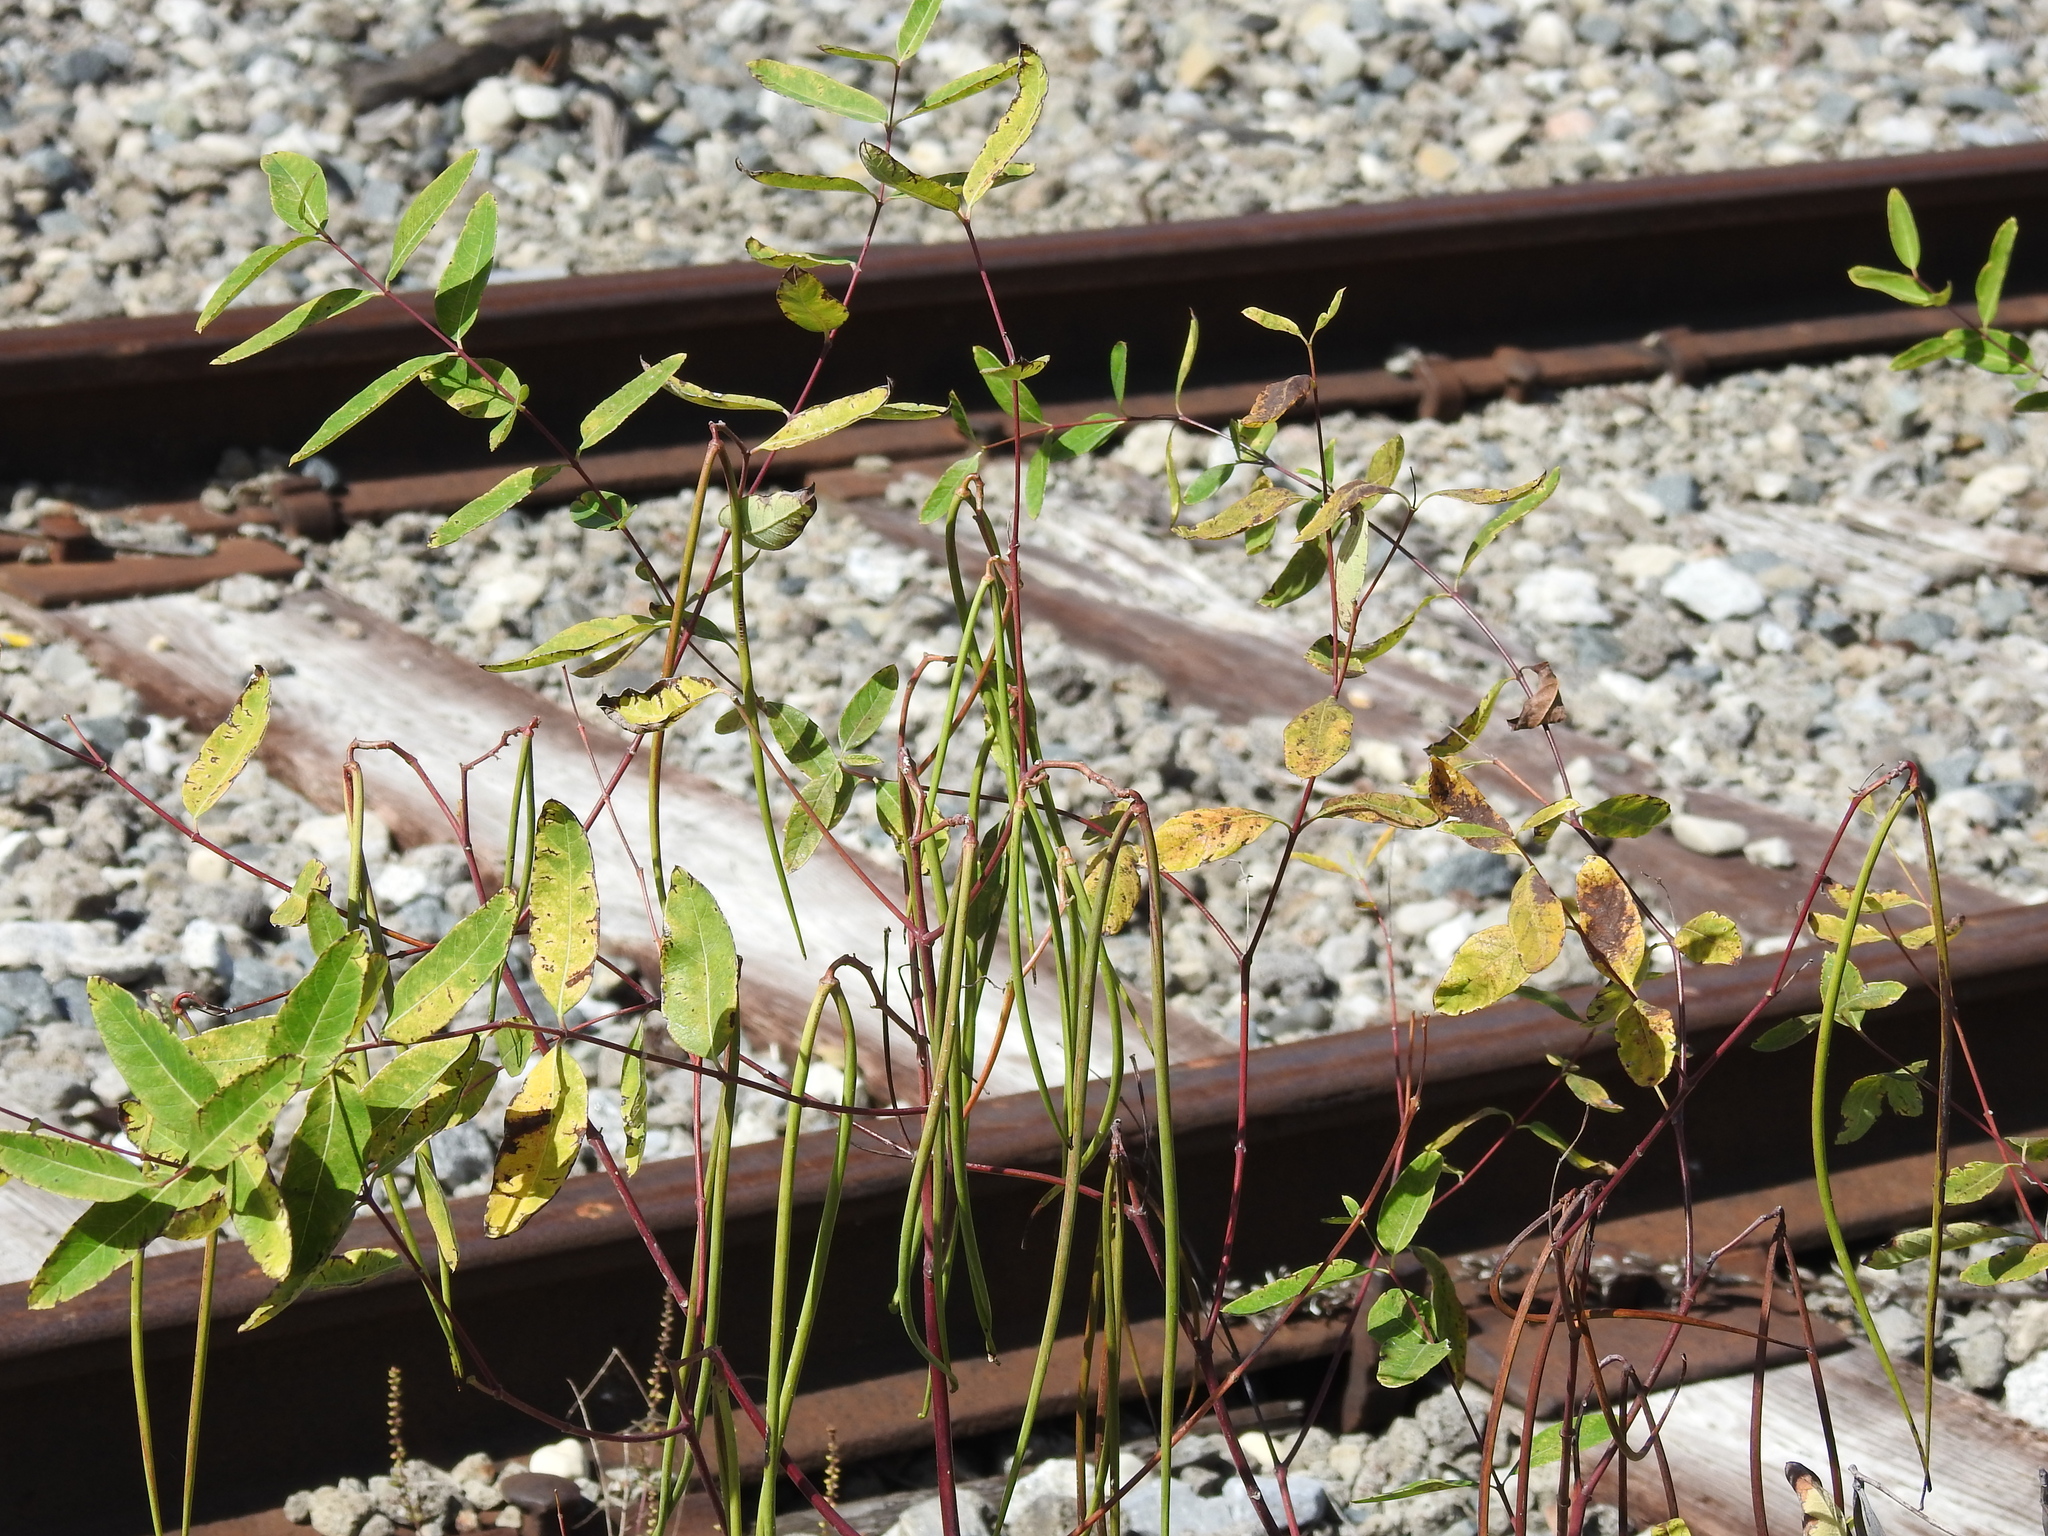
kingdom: Plantae
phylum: Tracheophyta
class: Magnoliopsida
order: Gentianales
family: Apocynaceae
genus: Apocynum
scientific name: Apocynum cannabinum
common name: Hemp dogbane
